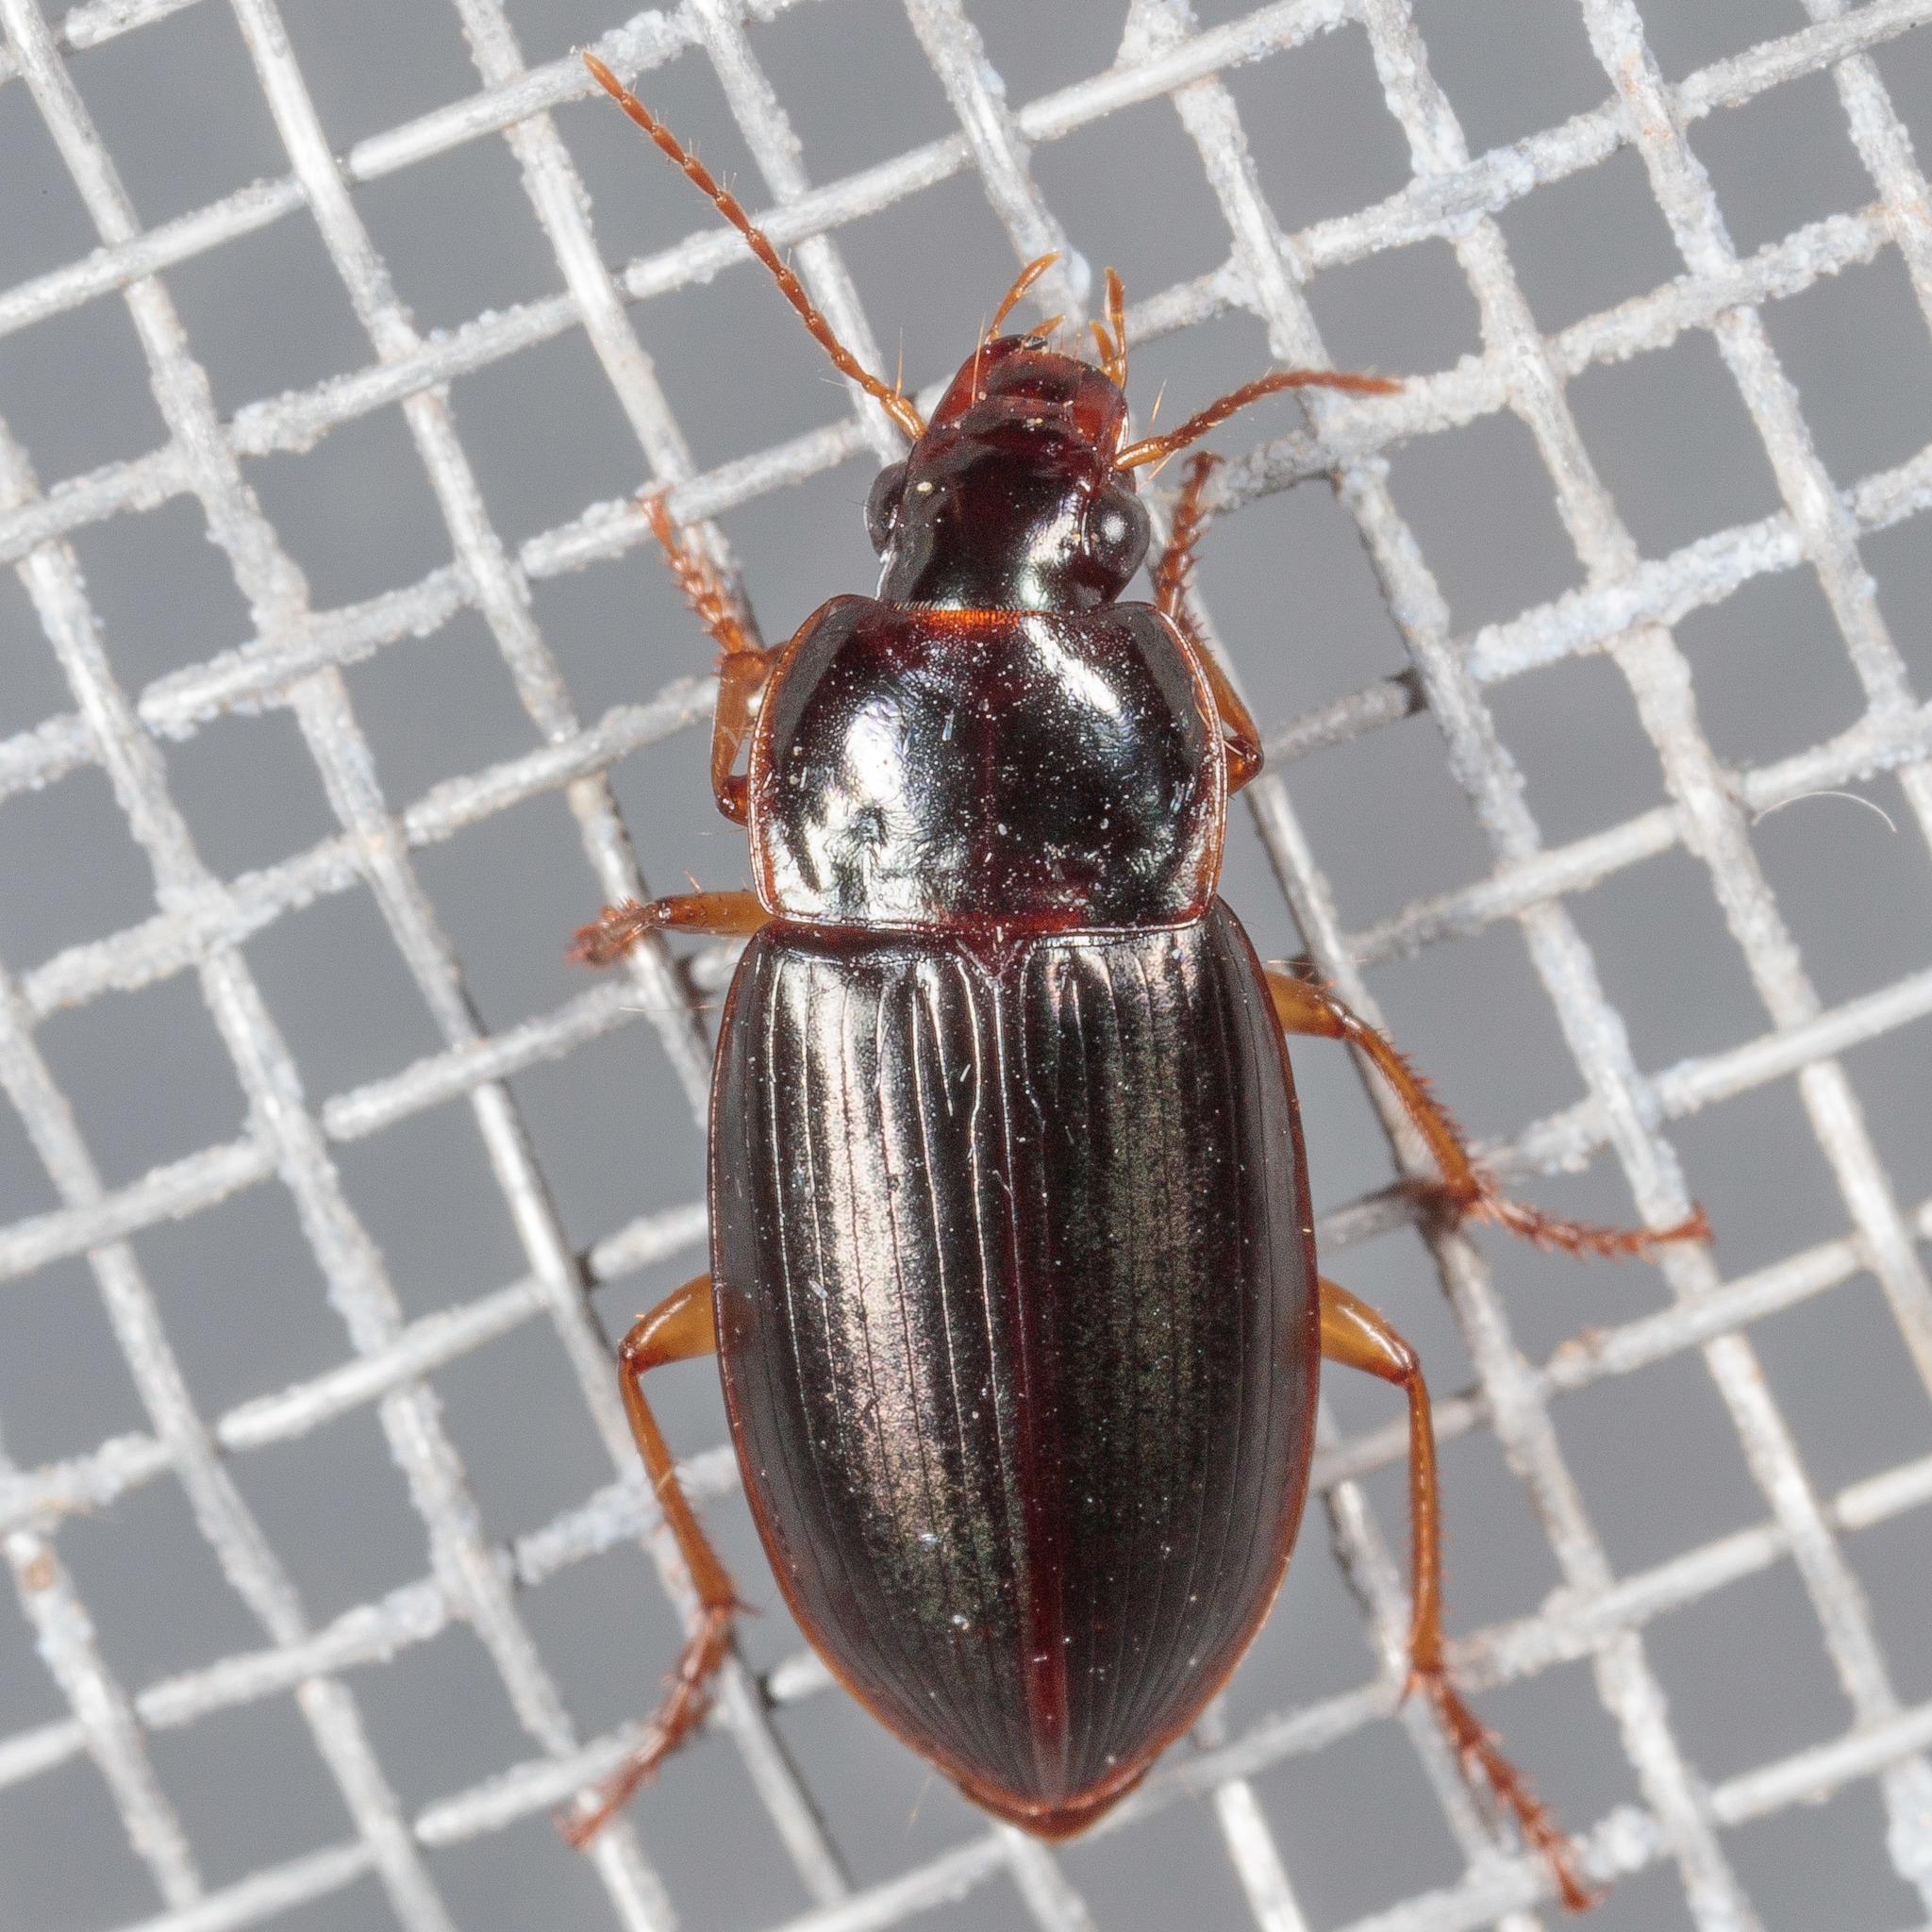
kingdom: Animalia
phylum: Arthropoda
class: Insecta
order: Coleoptera
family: Carabidae
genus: Notiobia
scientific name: Notiobia terminata
